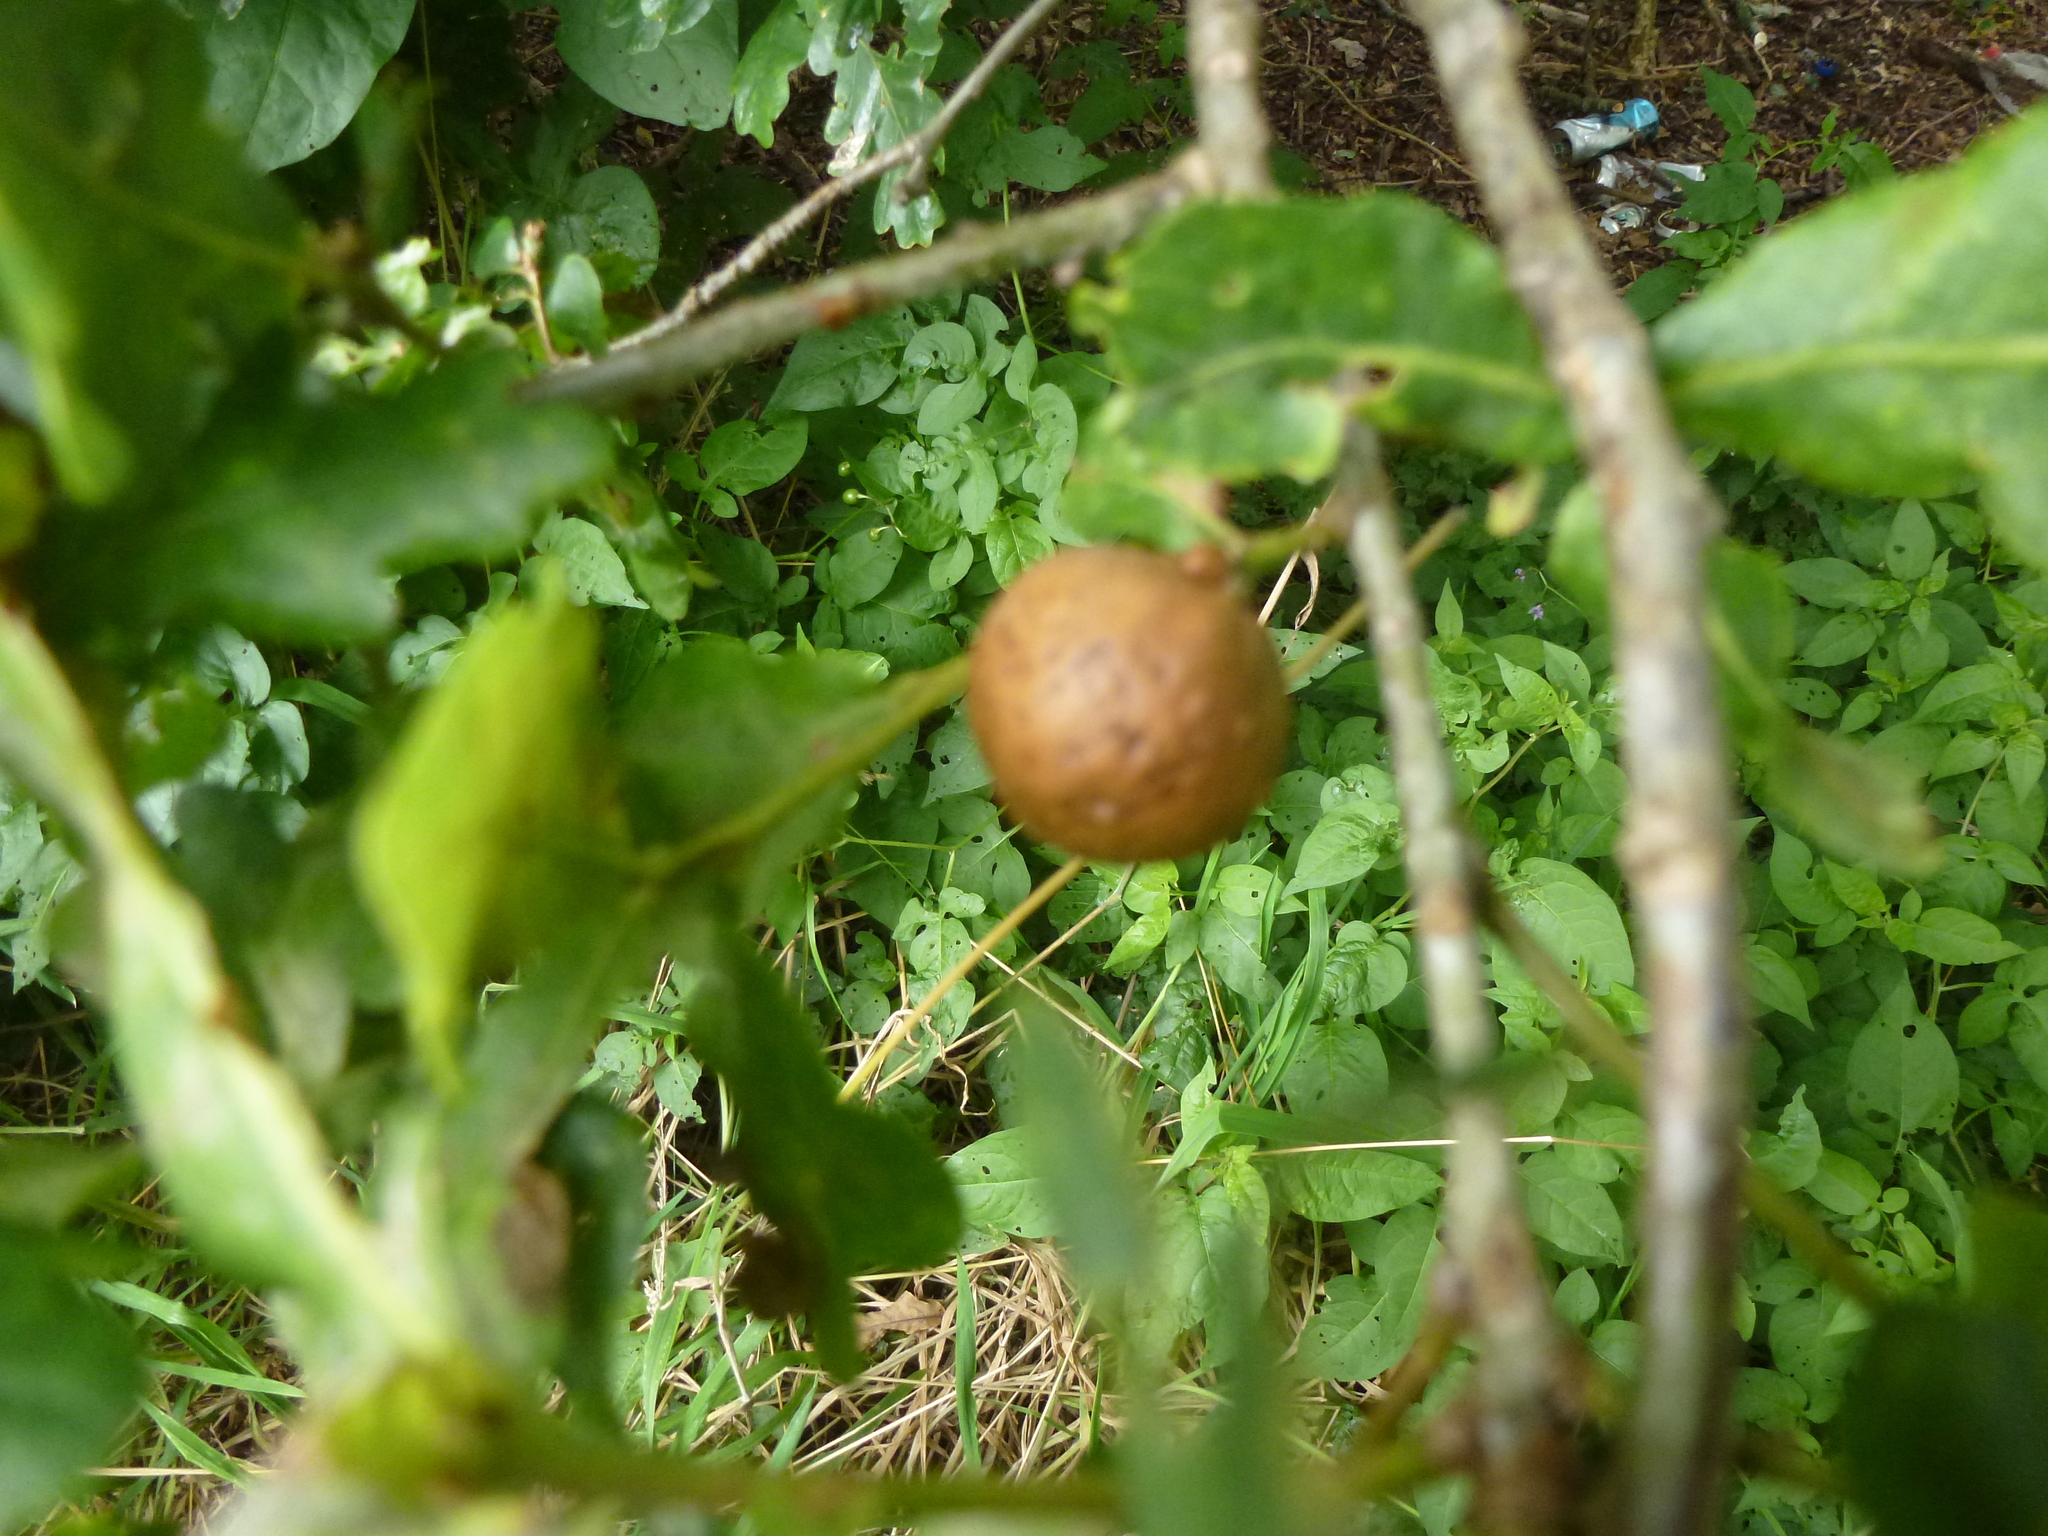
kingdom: Animalia
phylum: Arthropoda
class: Insecta
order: Hymenoptera
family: Cynipidae
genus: Andricus
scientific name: Andricus kollari
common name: Marble gall
